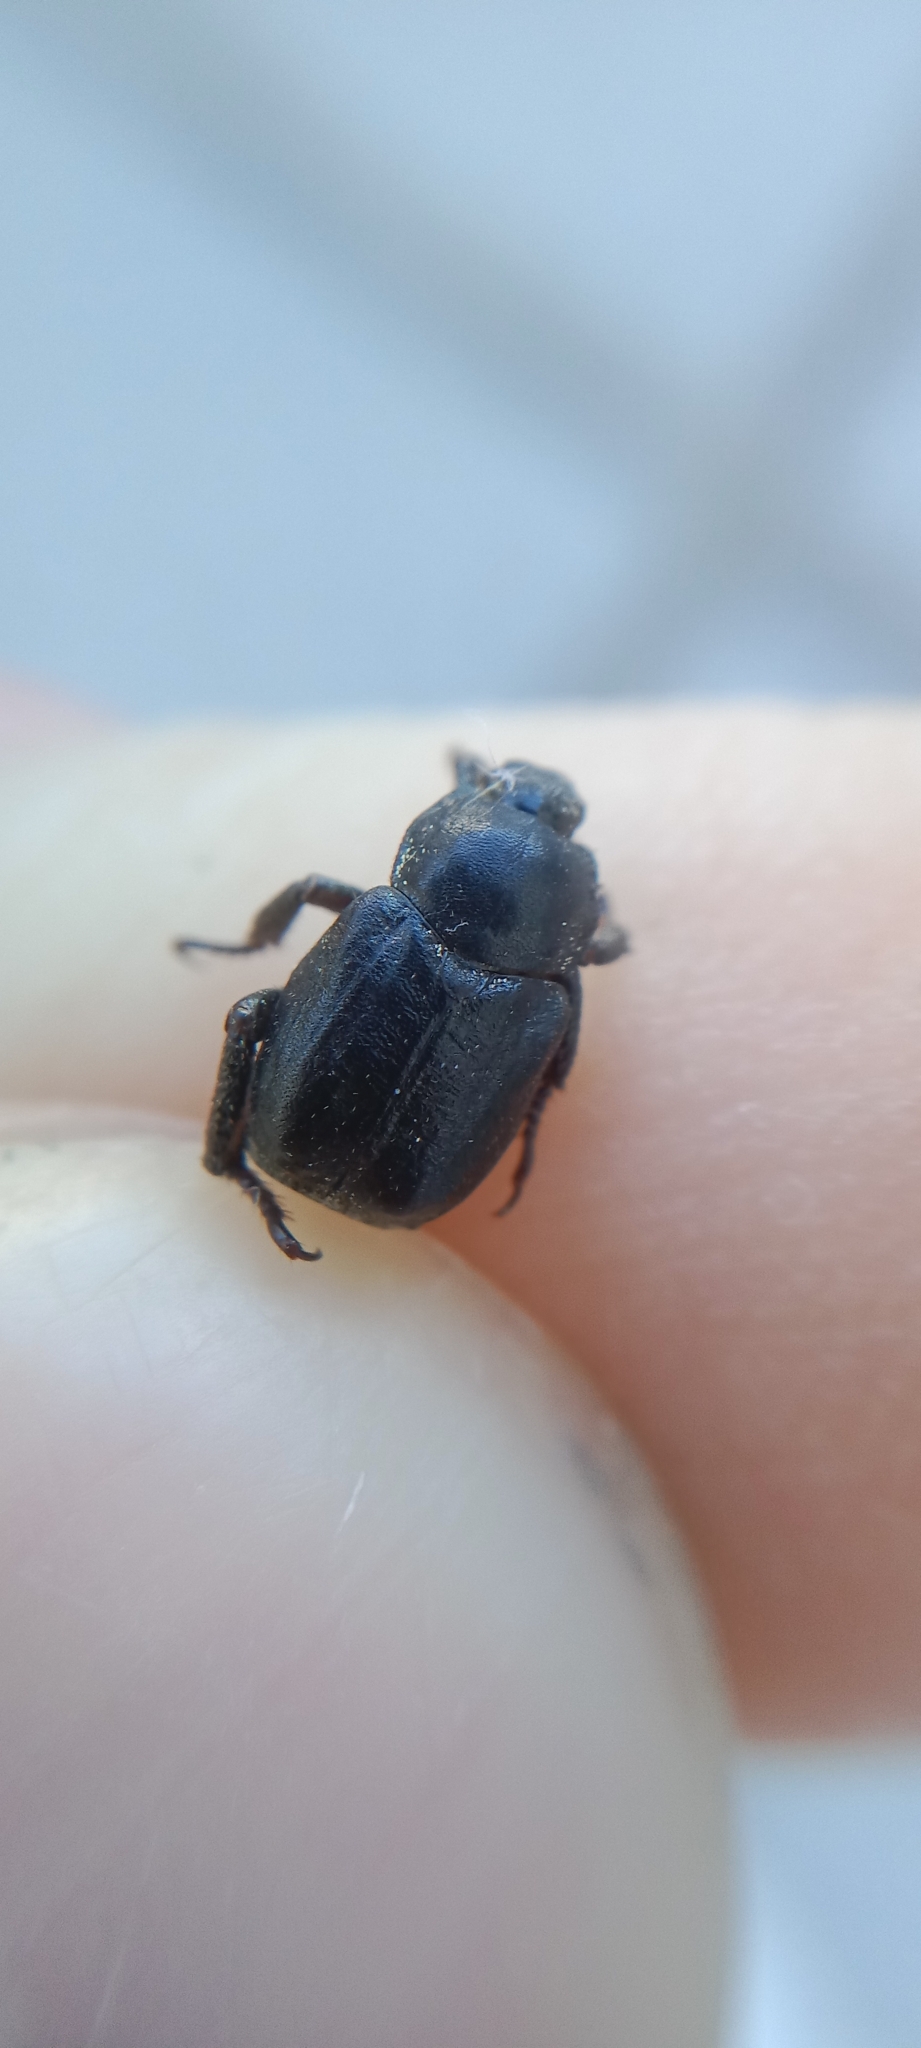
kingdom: Animalia
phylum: Arthropoda
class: Insecta
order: Coleoptera
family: Scarabaeidae
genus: Hoplia
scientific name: Hoplia philanthus
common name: Welsh chafer
